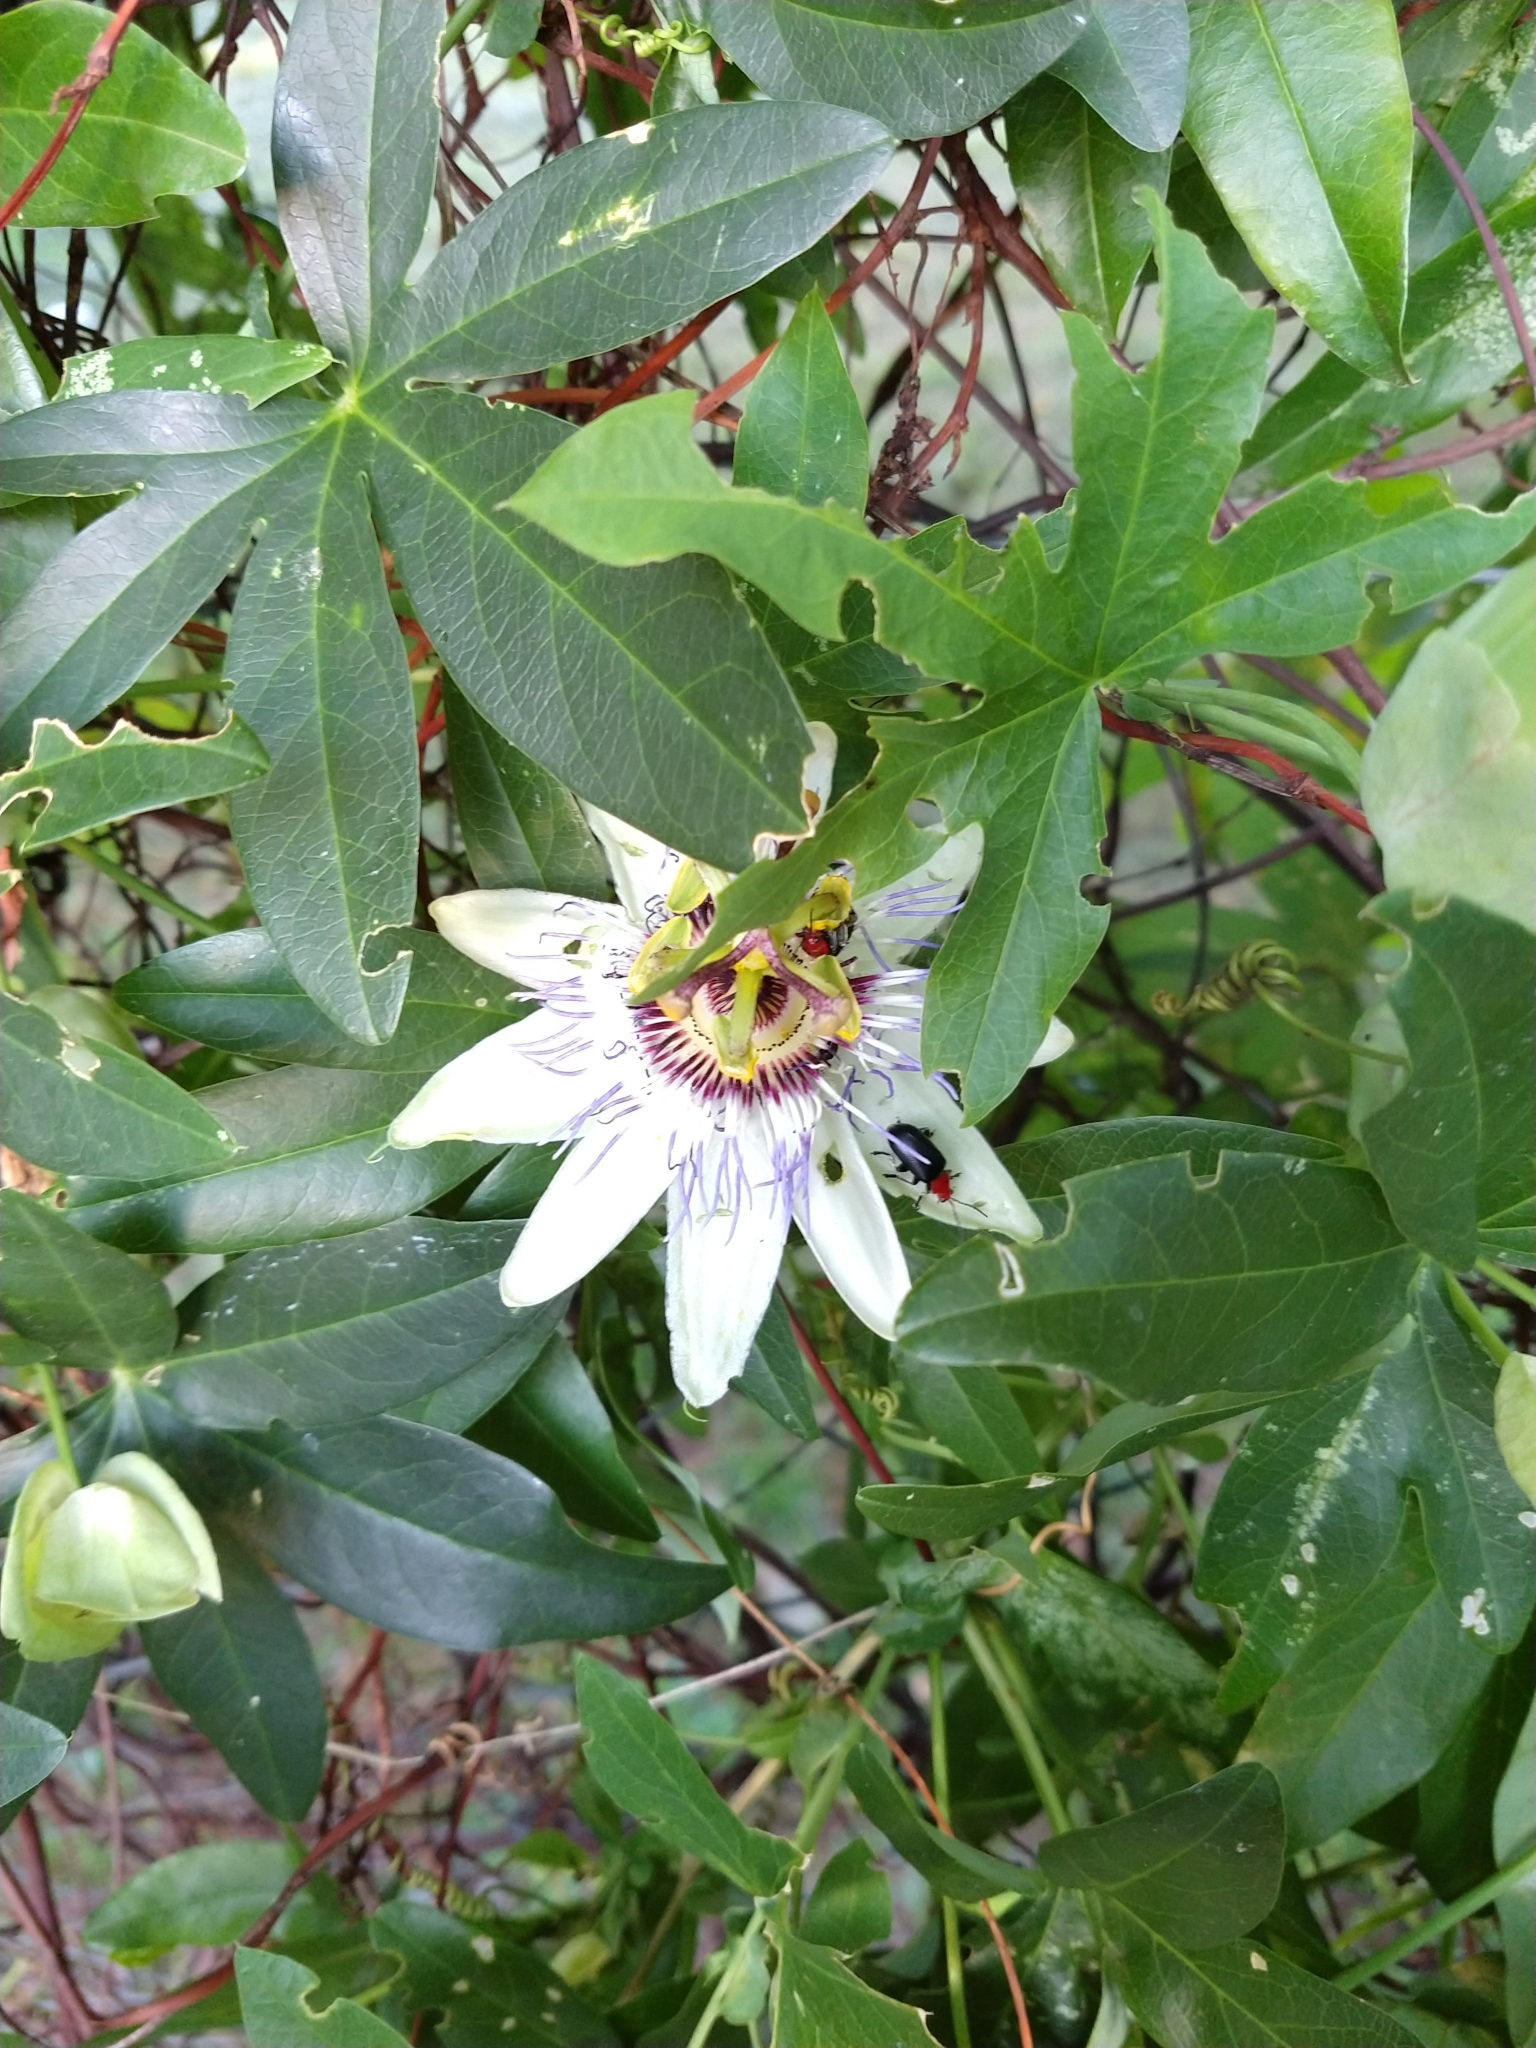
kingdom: Plantae
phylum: Tracheophyta
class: Magnoliopsida
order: Malpighiales
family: Passifloraceae
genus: Passiflora
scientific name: Passiflora caerulea
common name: Blue passionflower
